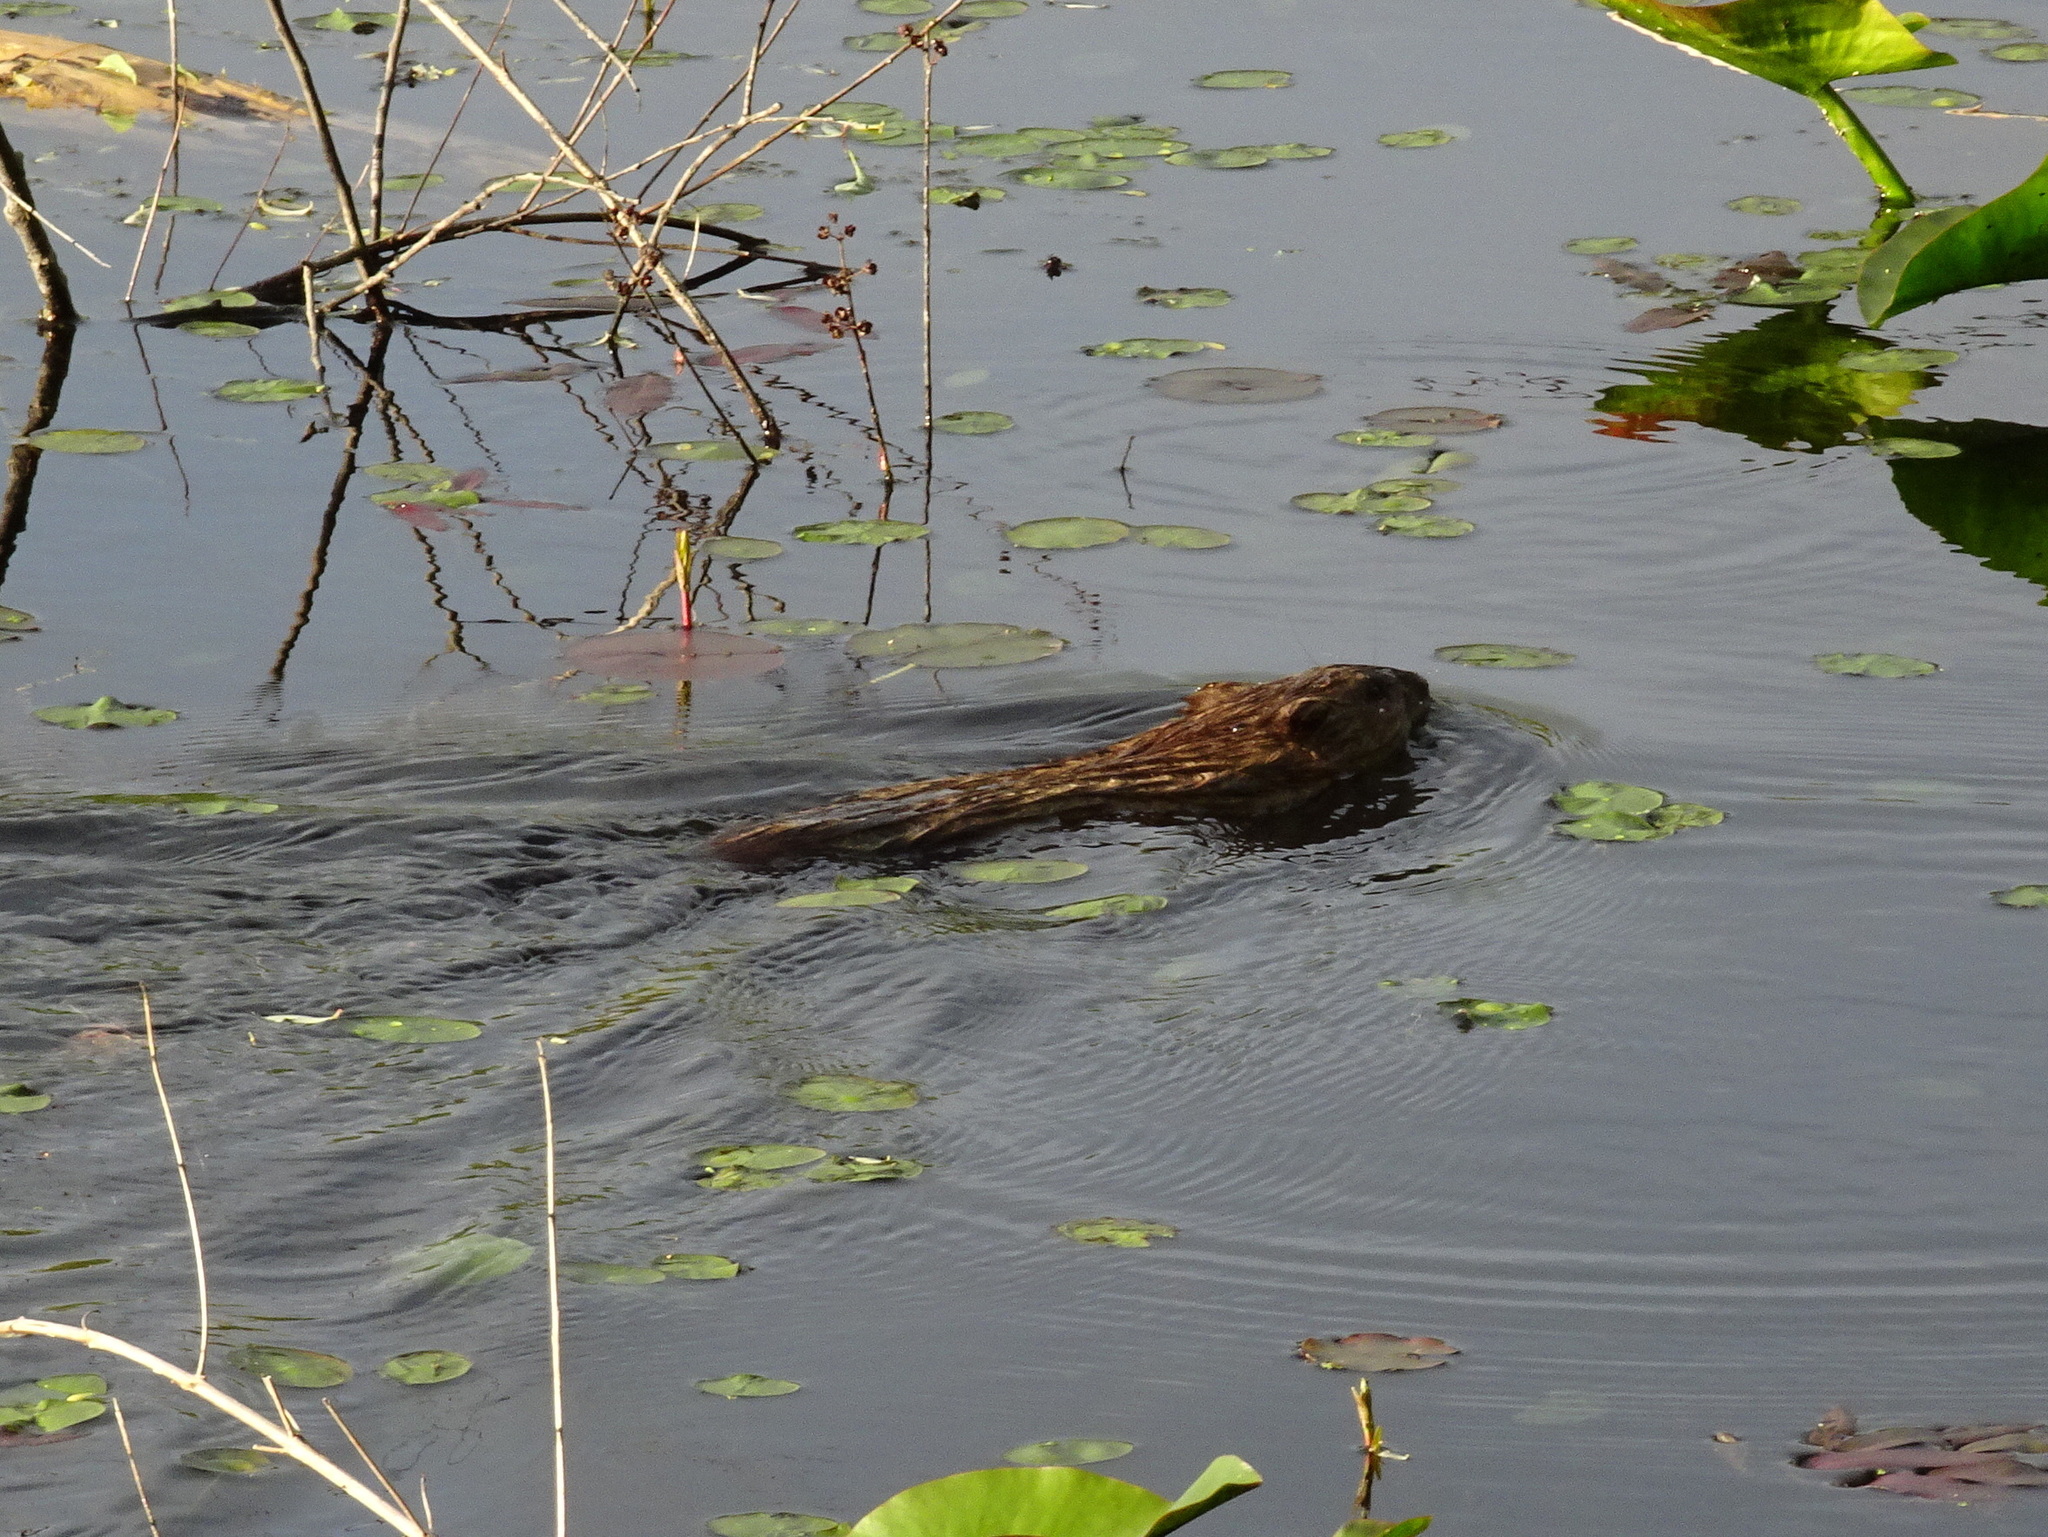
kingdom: Animalia
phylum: Chordata
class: Mammalia
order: Rodentia
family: Cricetidae
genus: Ondatra
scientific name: Ondatra zibethicus
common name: Muskrat
